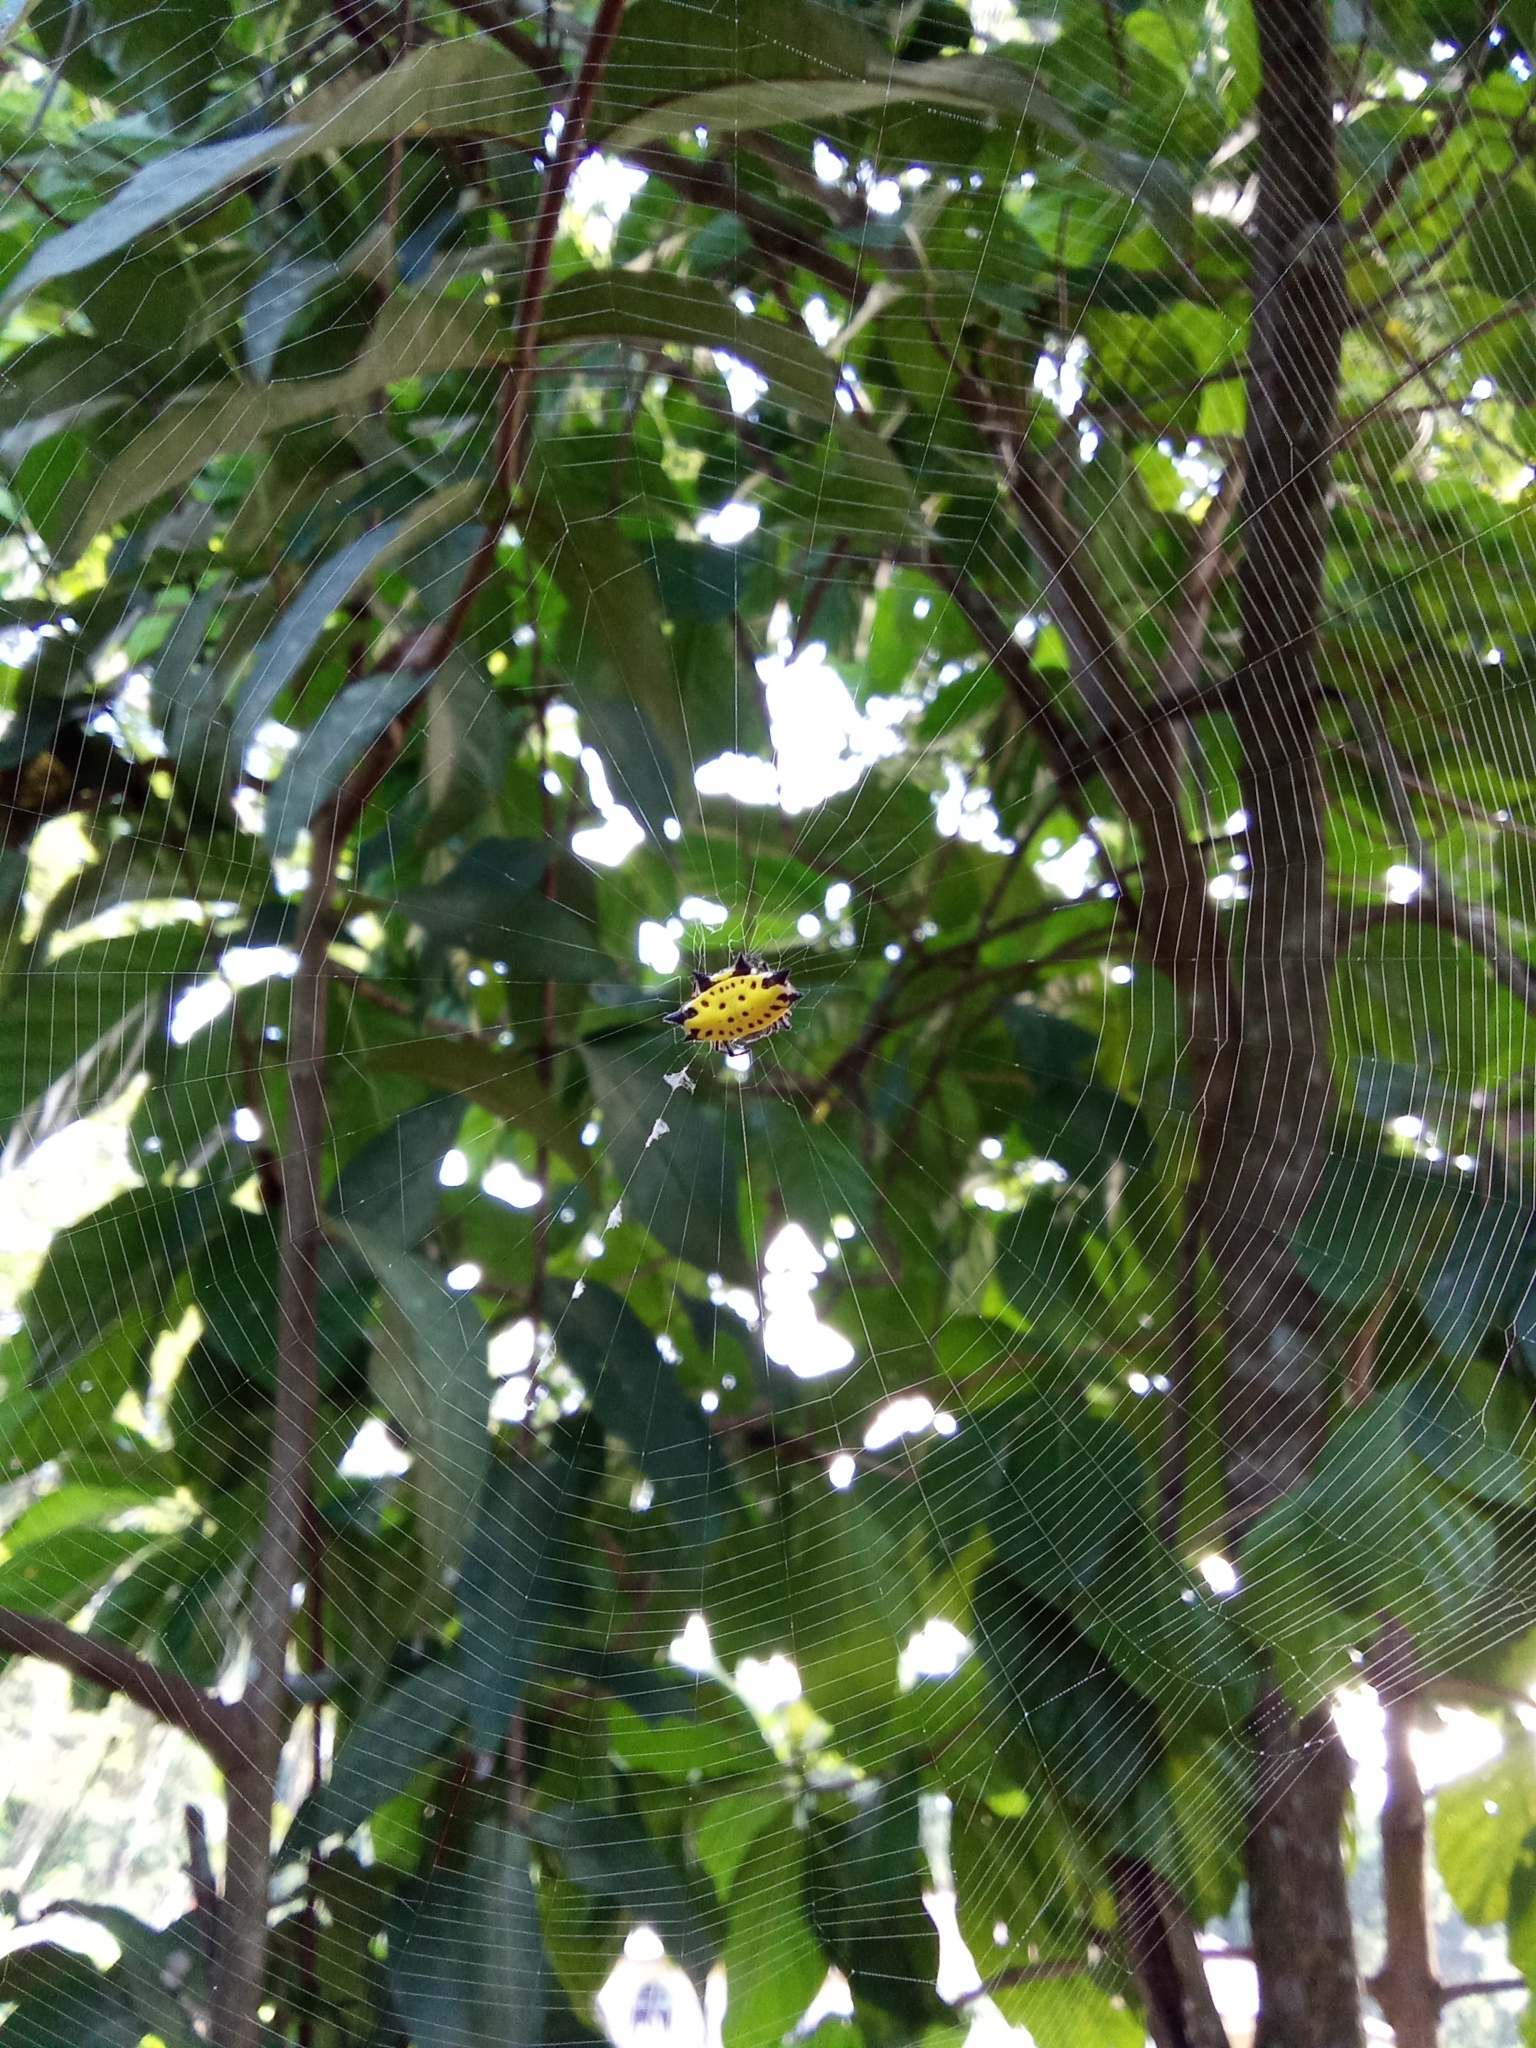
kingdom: Animalia
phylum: Arthropoda
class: Arachnida
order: Araneae
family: Araneidae
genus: Gasteracantha
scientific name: Gasteracantha cancriformis
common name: Orb weavers
